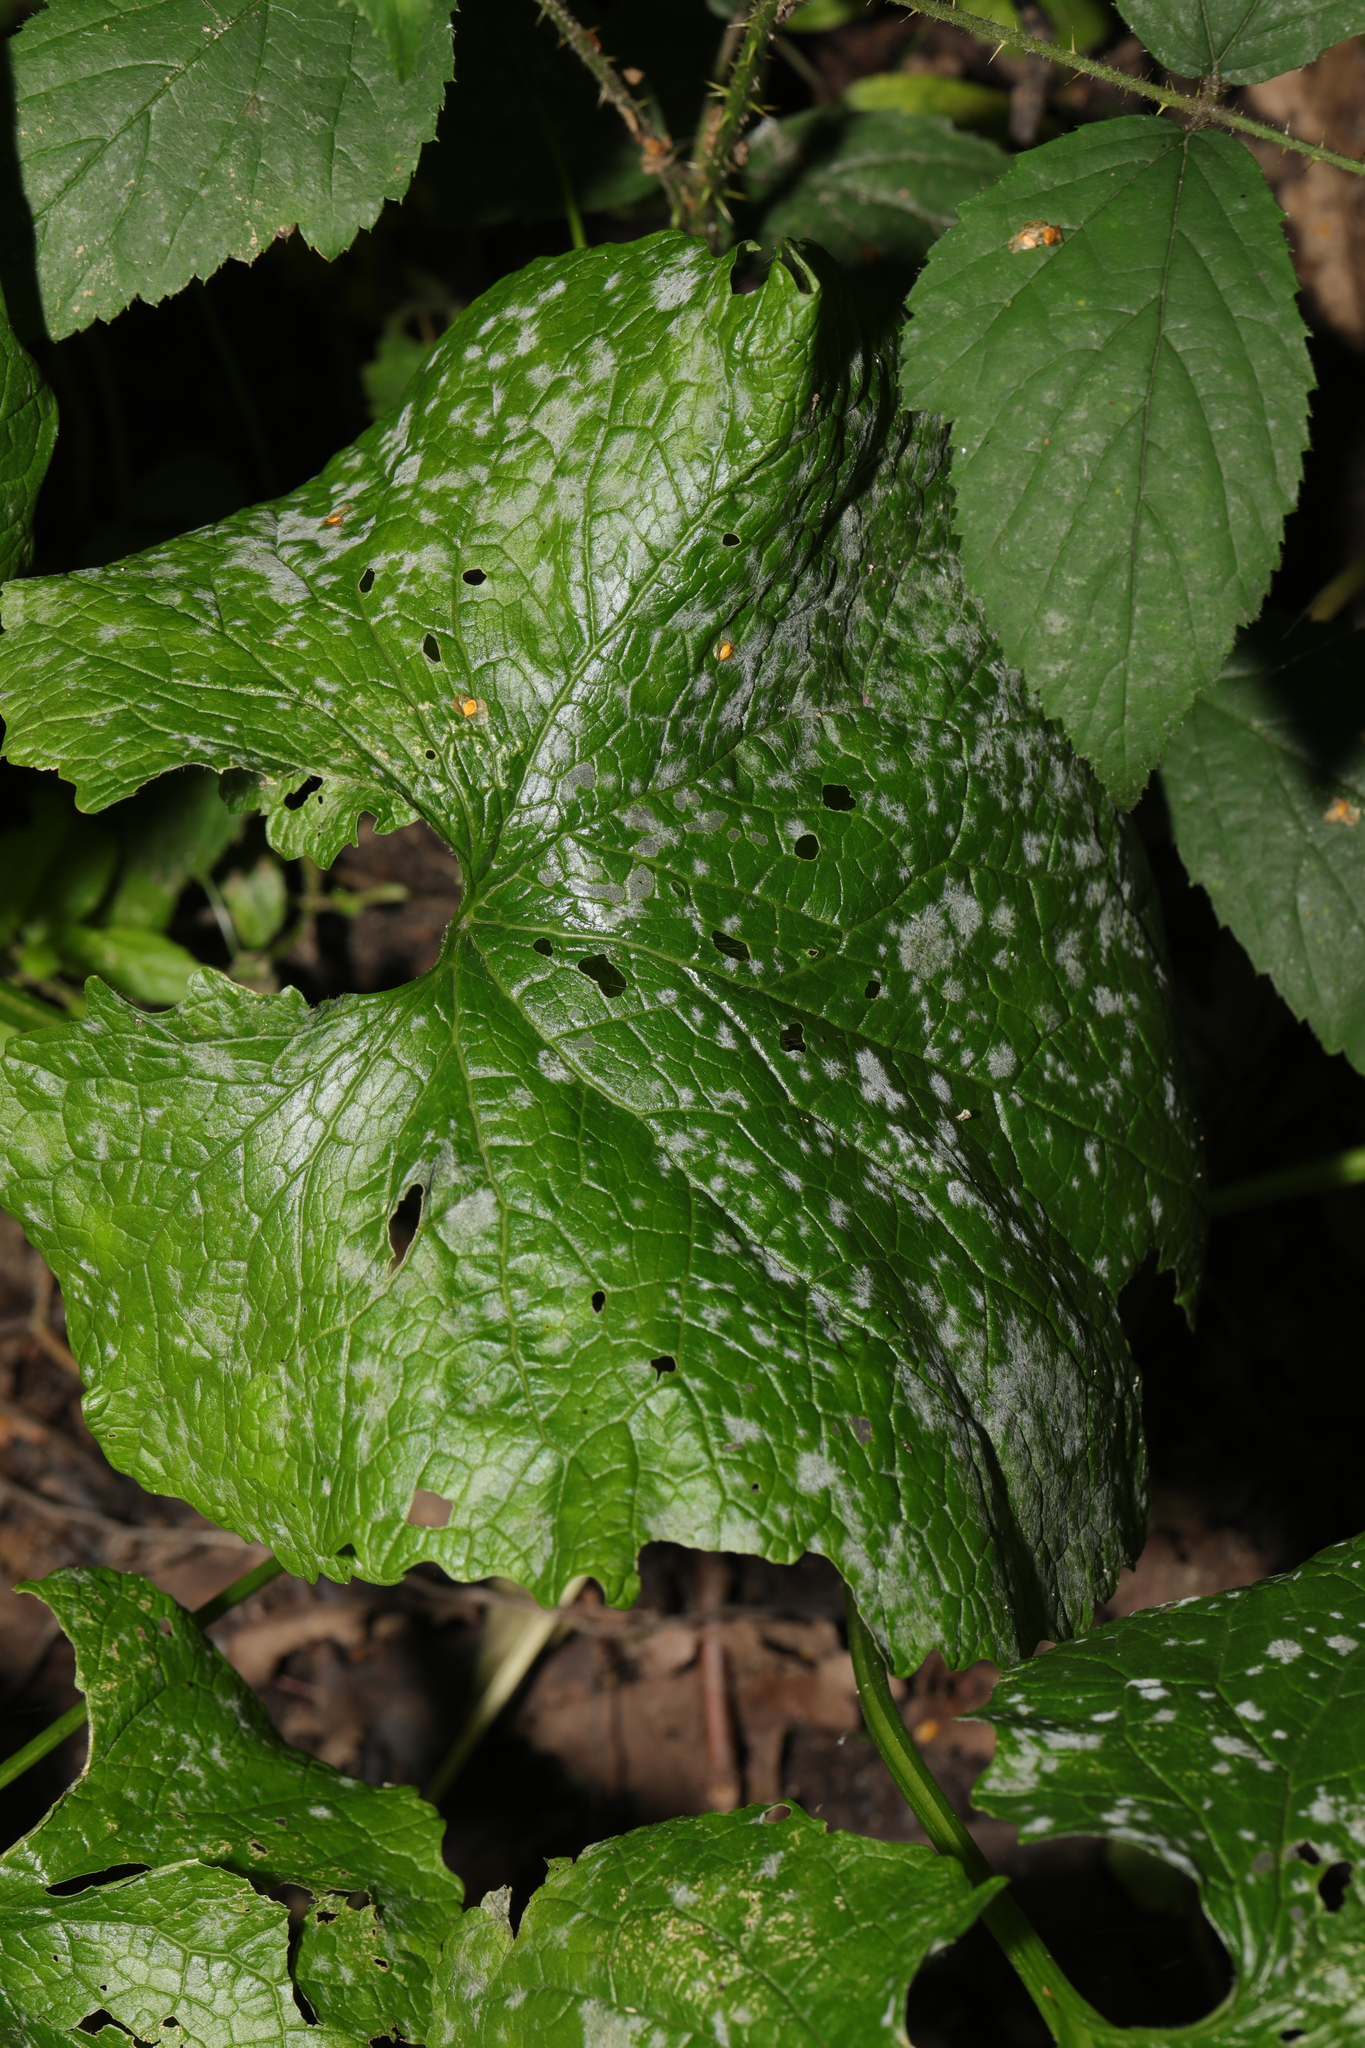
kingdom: Fungi
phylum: Ascomycota
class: Leotiomycetes
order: Helotiales
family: Erysiphaceae
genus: Erysiphe
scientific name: Erysiphe cruciferarum
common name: Brassica powdery mildew
